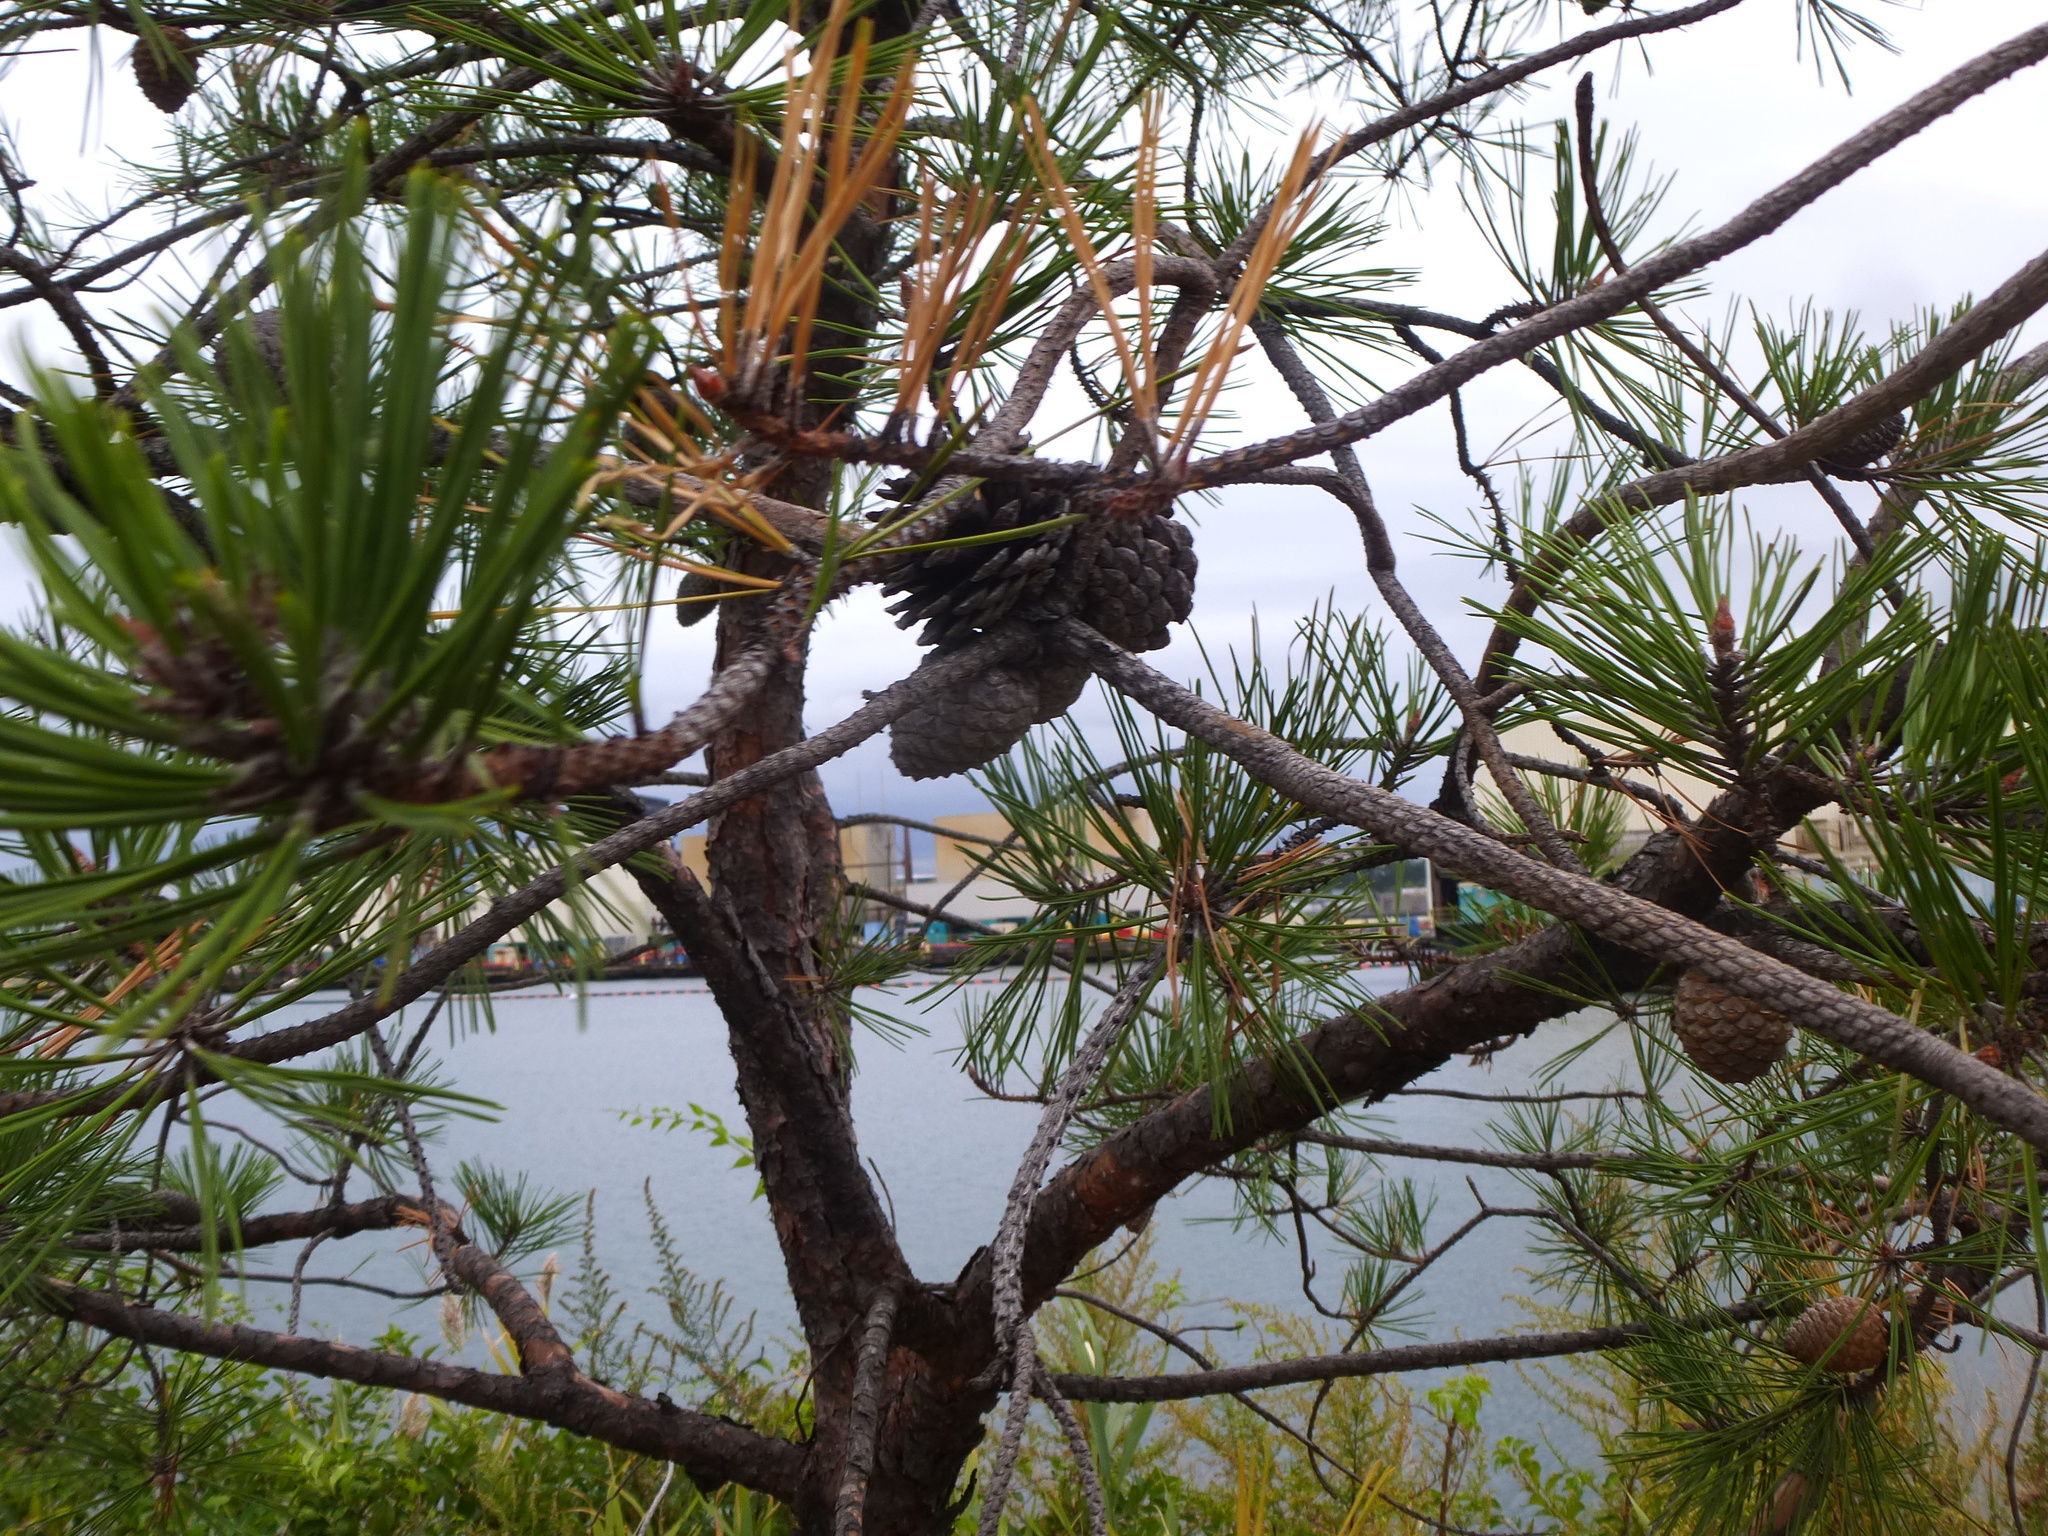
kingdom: Plantae
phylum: Tracheophyta
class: Pinopsida
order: Pinales
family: Pinaceae
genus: Pinus
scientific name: Pinus rigida
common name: Pitch pine
